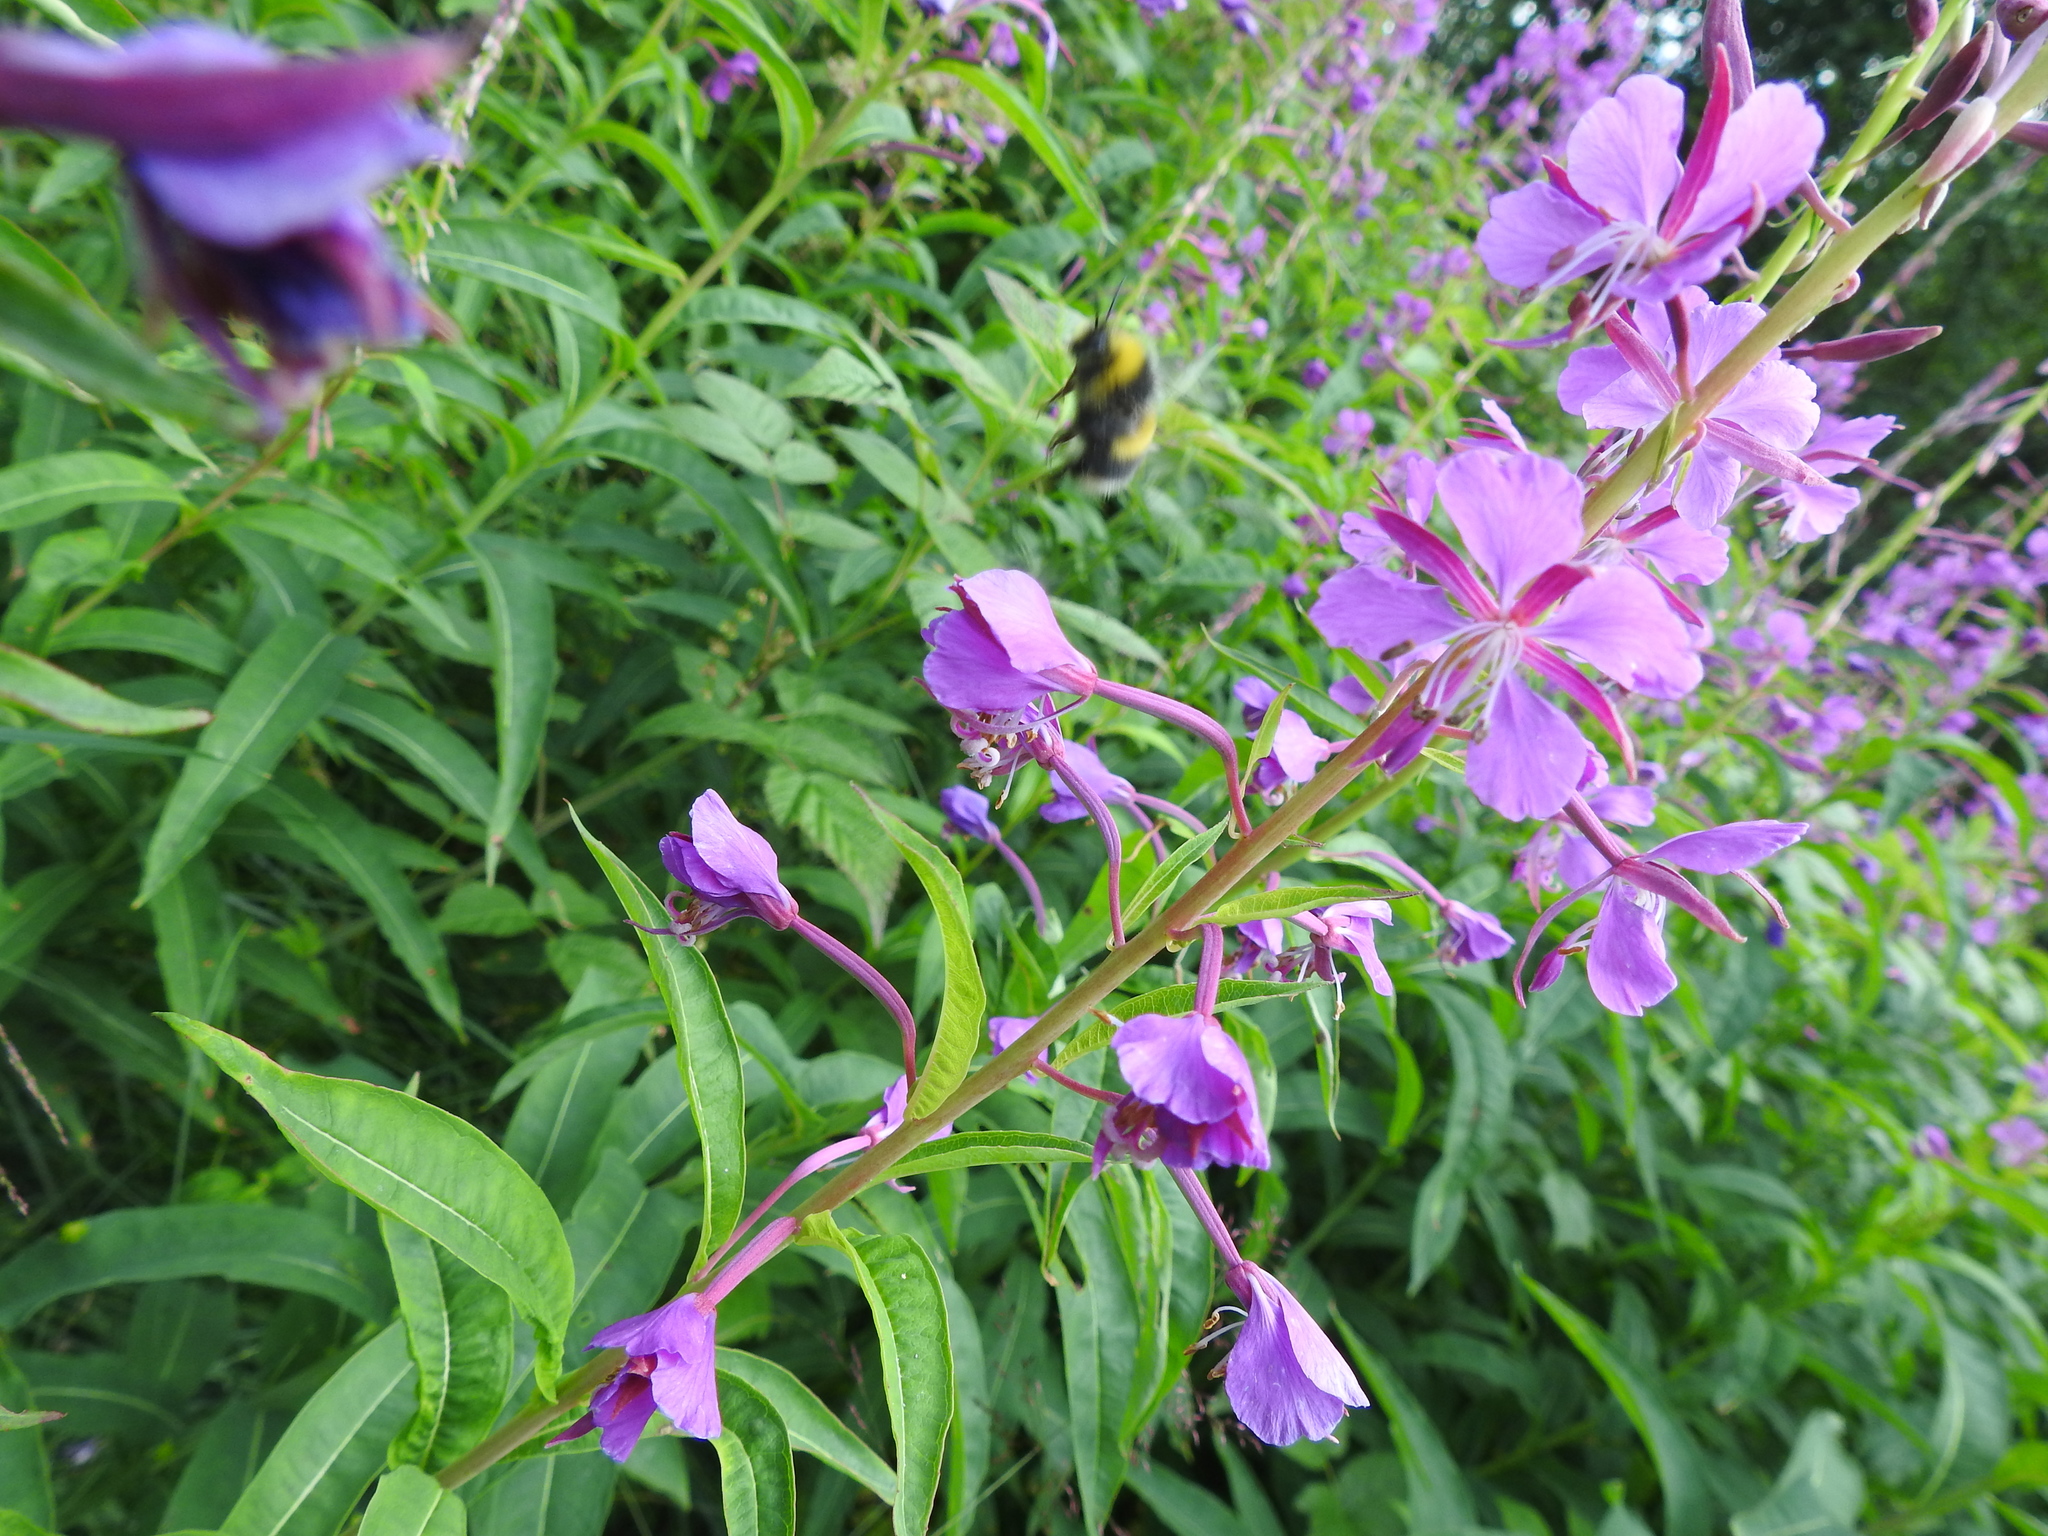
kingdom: Plantae
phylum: Tracheophyta
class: Magnoliopsida
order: Myrtales
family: Onagraceae
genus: Chamaenerion
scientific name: Chamaenerion angustifolium
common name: Fireweed
